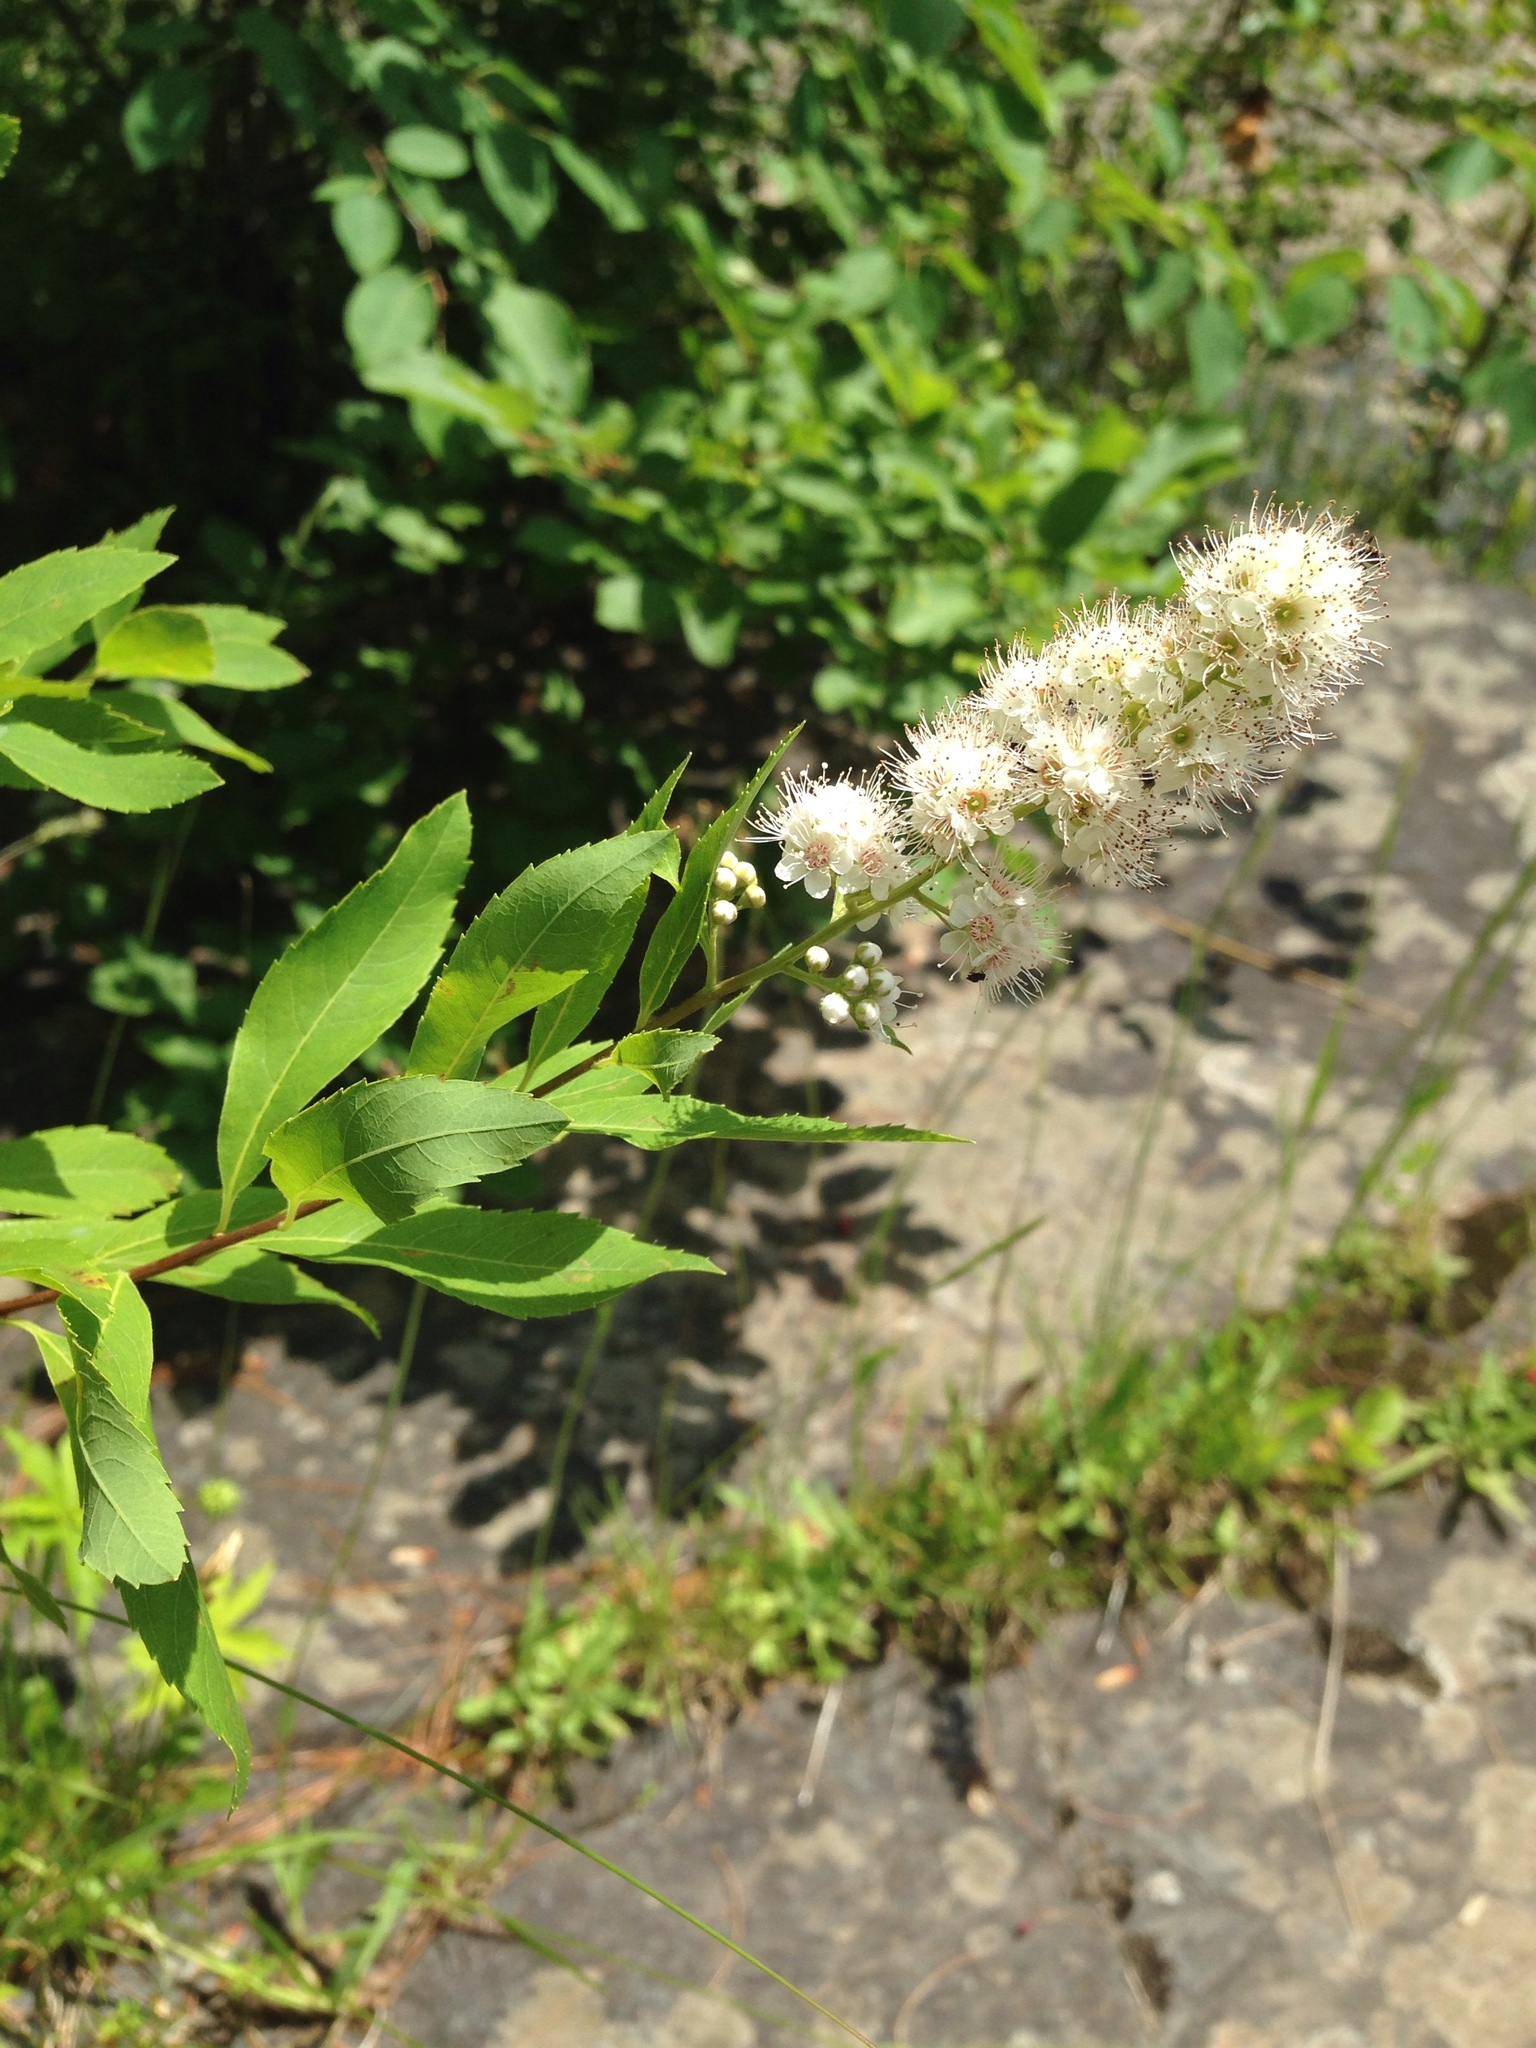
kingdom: Plantae
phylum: Tracheophyta
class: Magnoliopsida
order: Rosales
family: Rosaceae
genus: Spiraea
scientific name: Spiraea alba
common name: Pale bridewort
